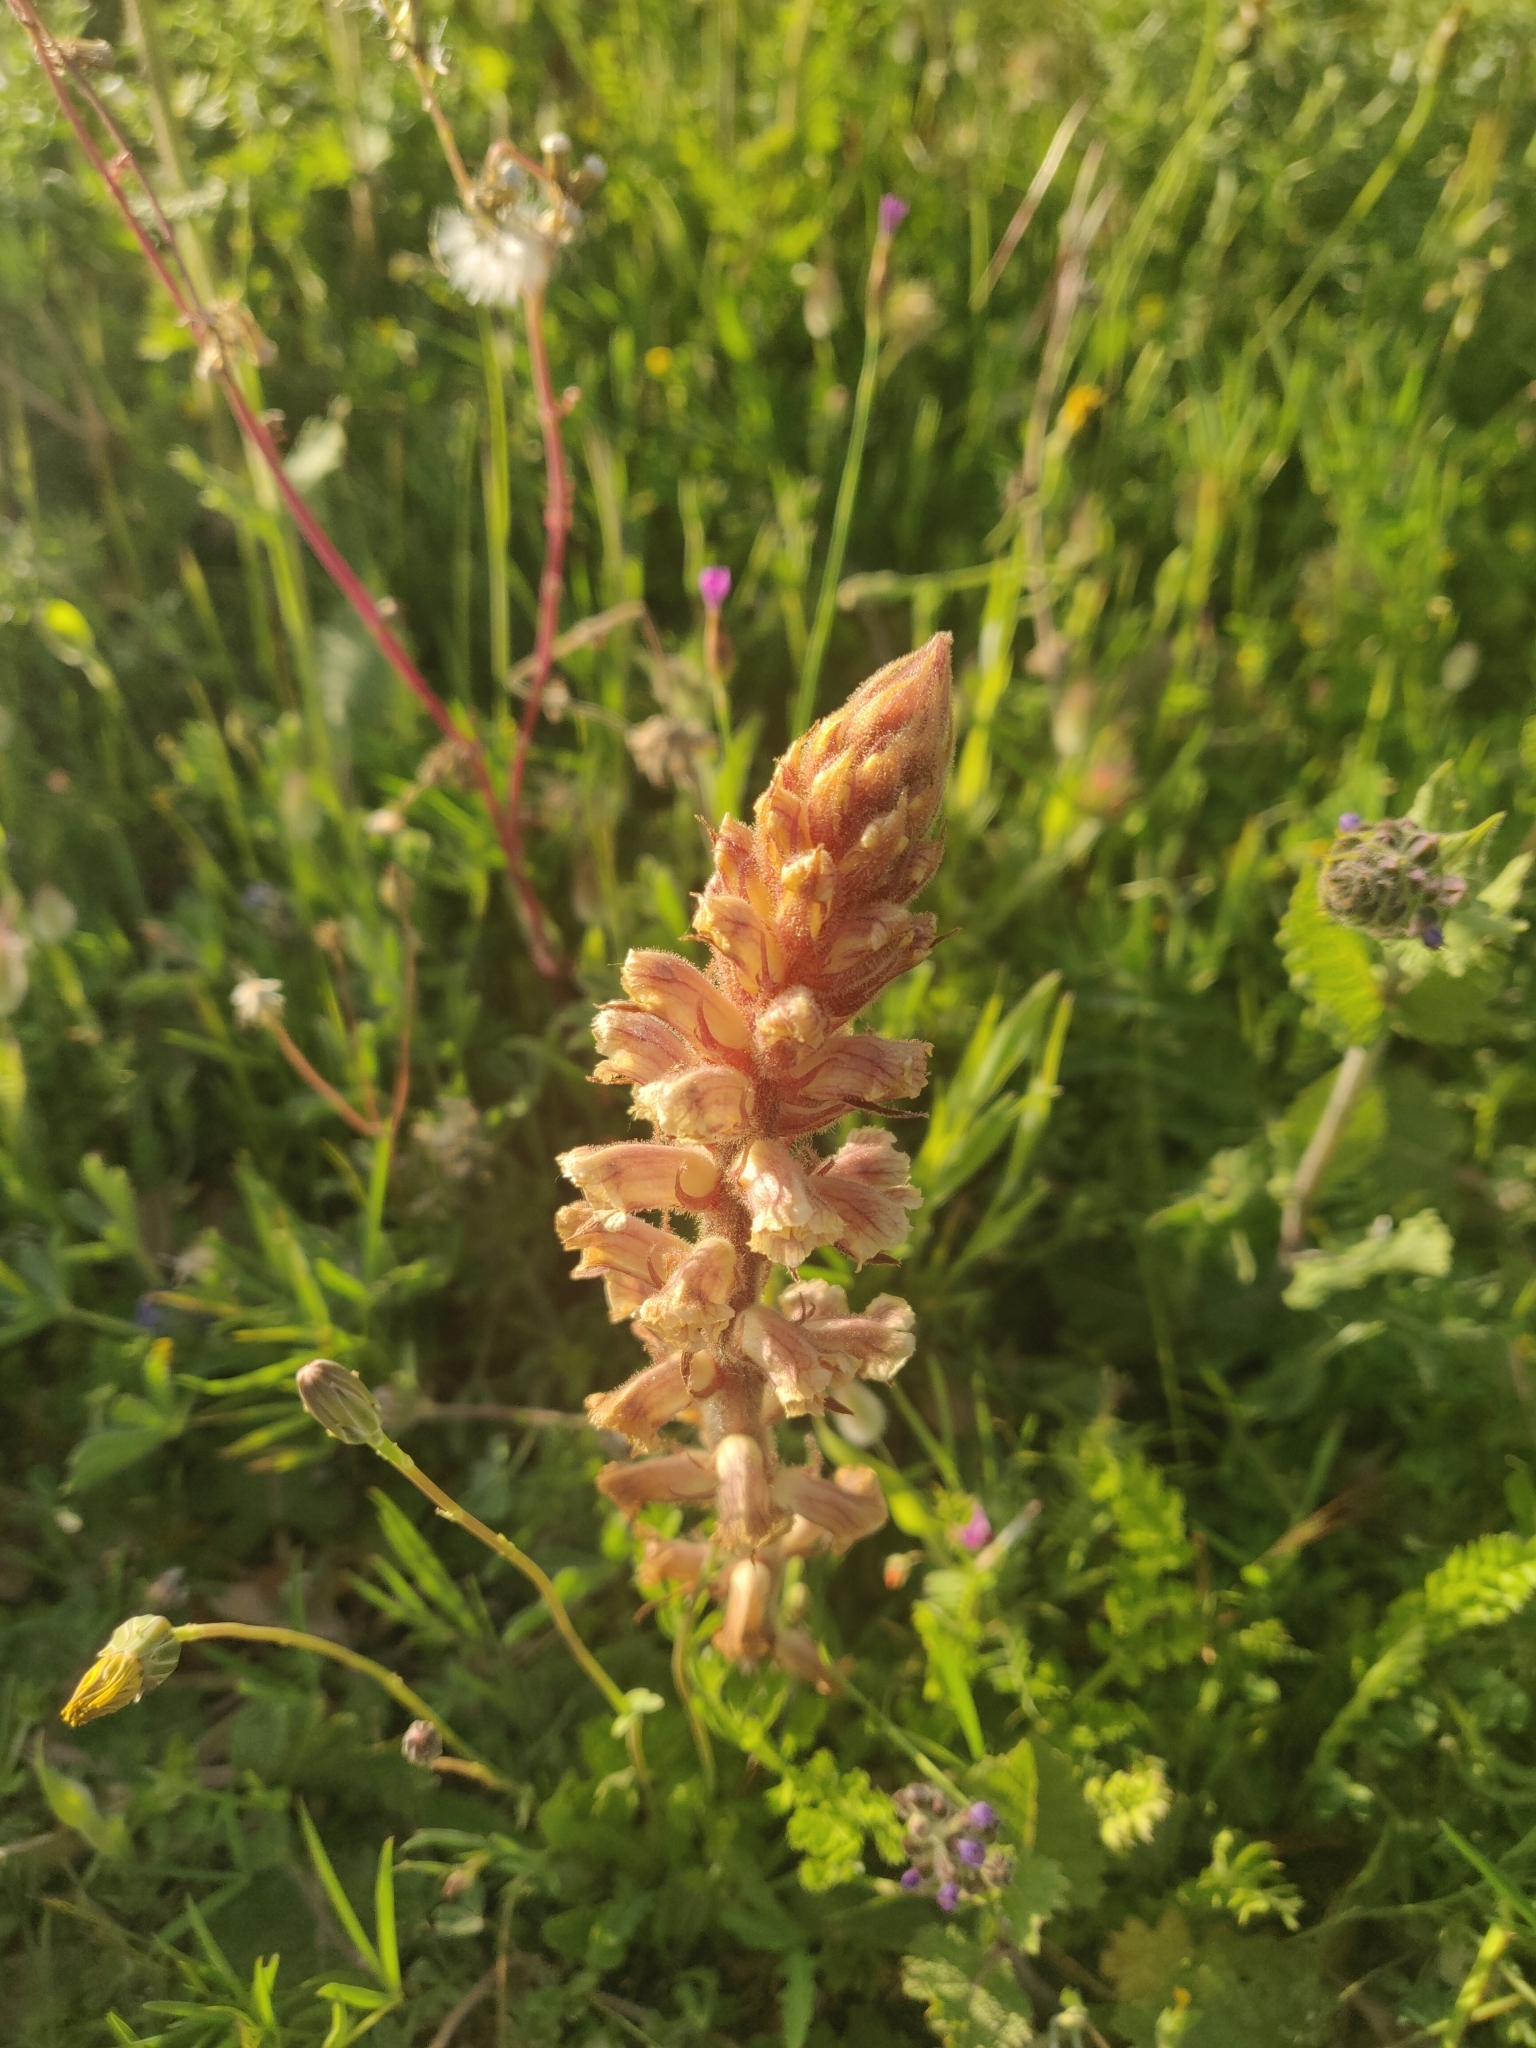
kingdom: Plantae
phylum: Tracheophyta
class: Magnoliopsida
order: Lamiales
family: Orobanchaceae
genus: Orobanche
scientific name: Orobanche minor
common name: Common broomrape
